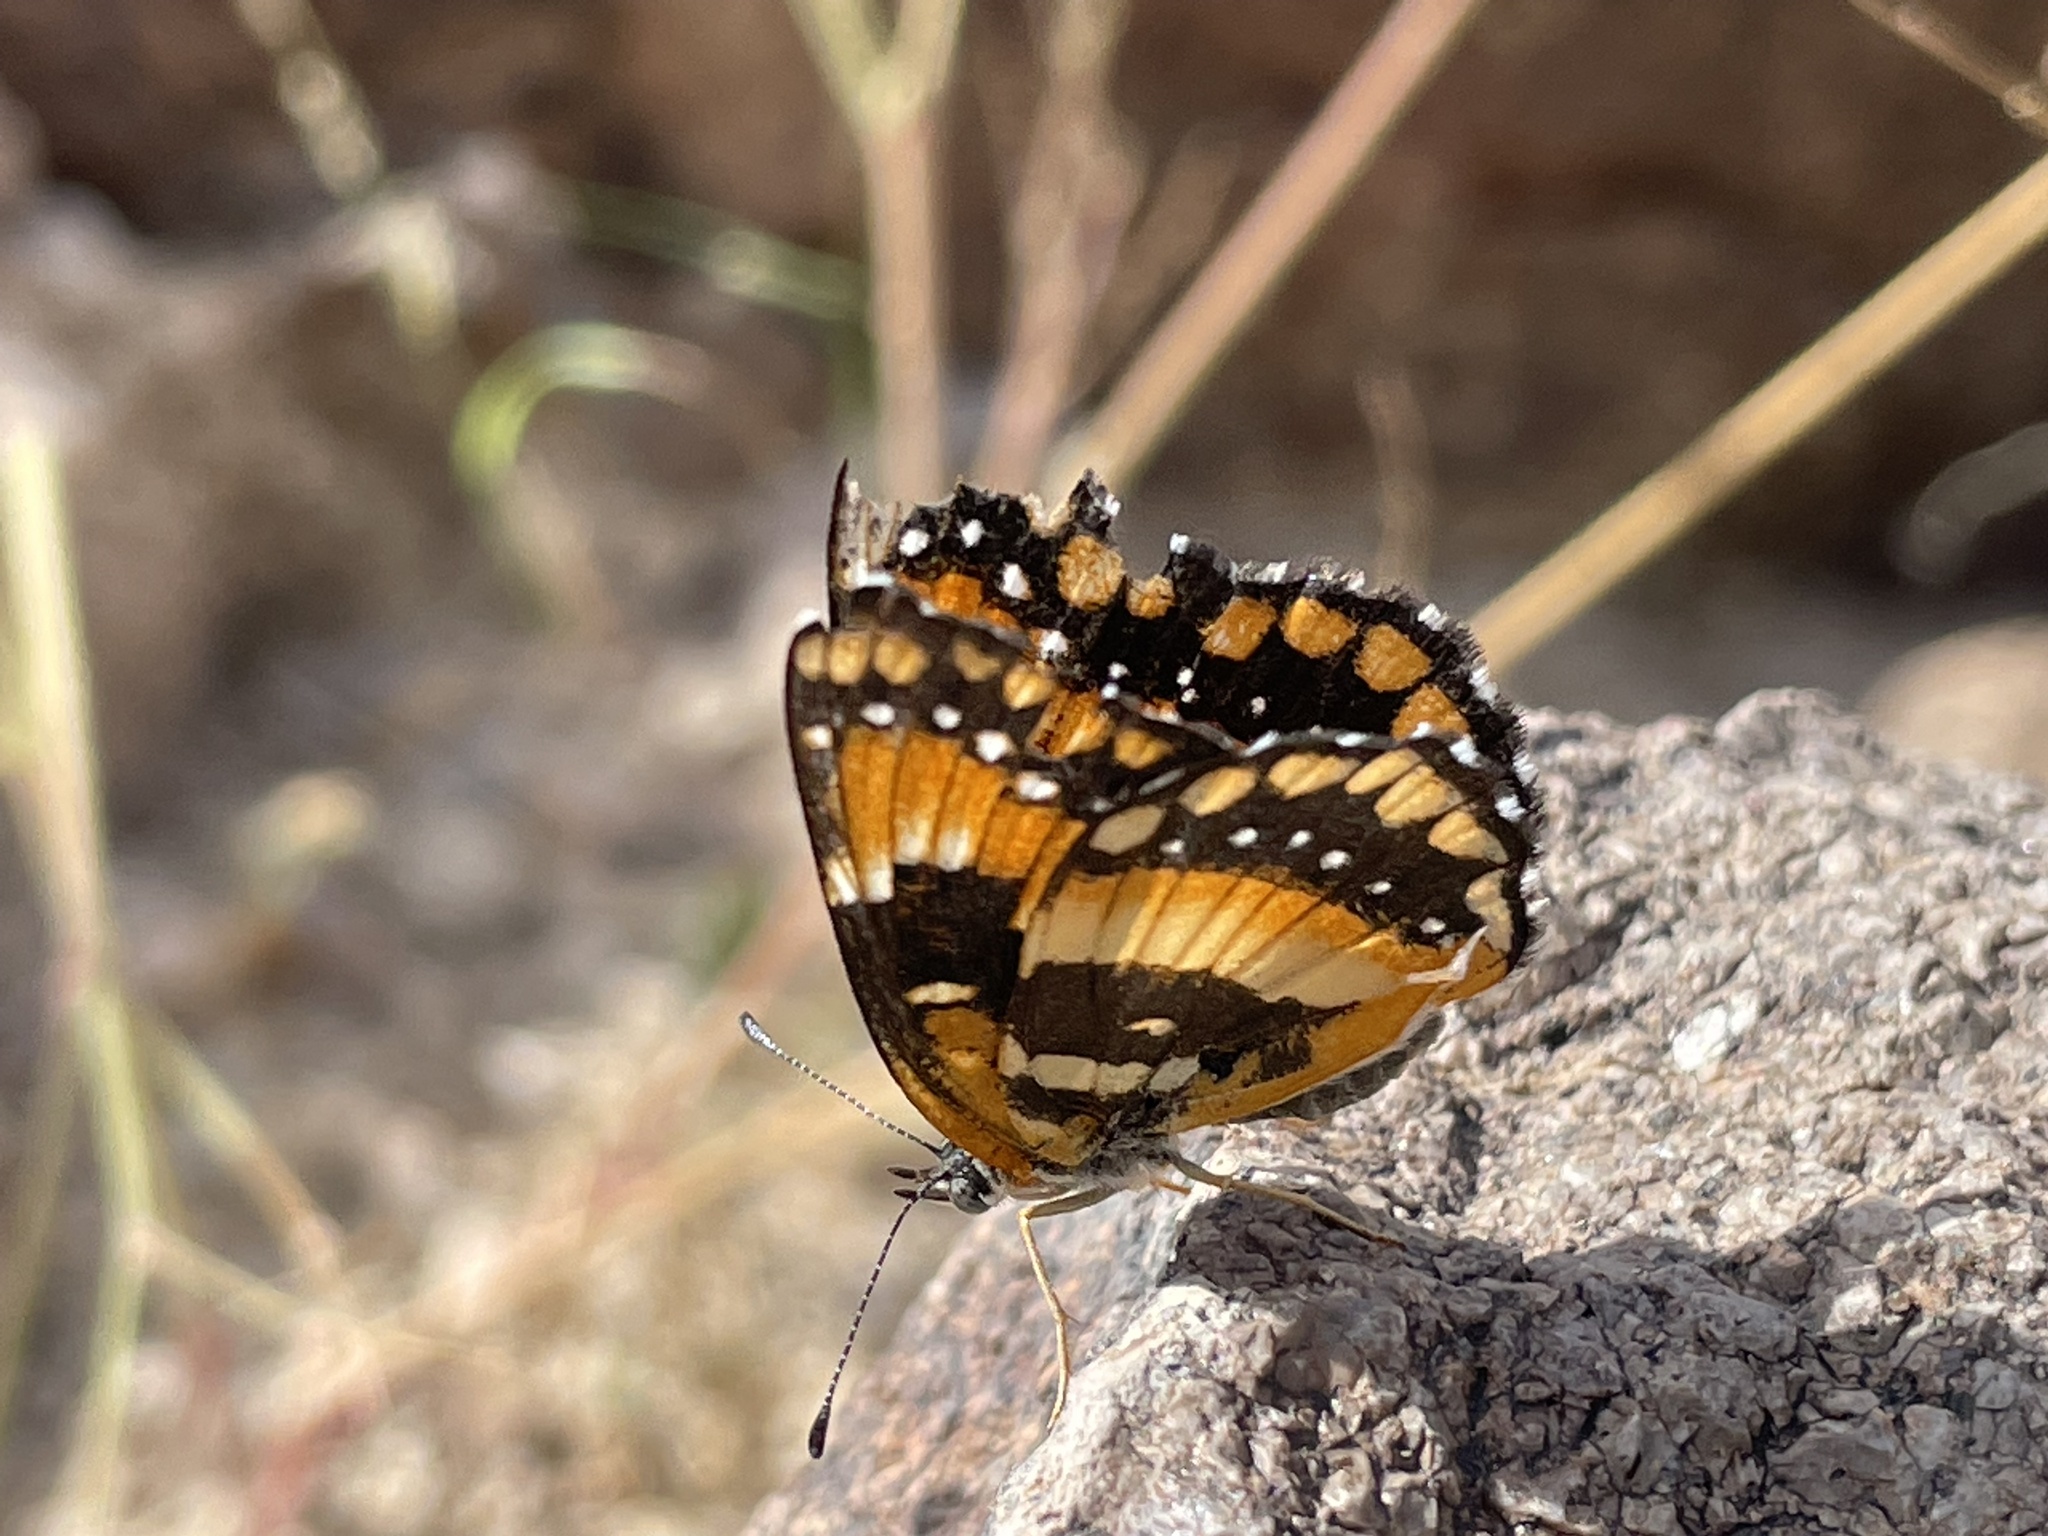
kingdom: Animalia
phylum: Arthropoda
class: Insecta
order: Lepidoptera
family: Nymphalidae
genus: Chlosyne
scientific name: Chlosyne californica
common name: California patch
